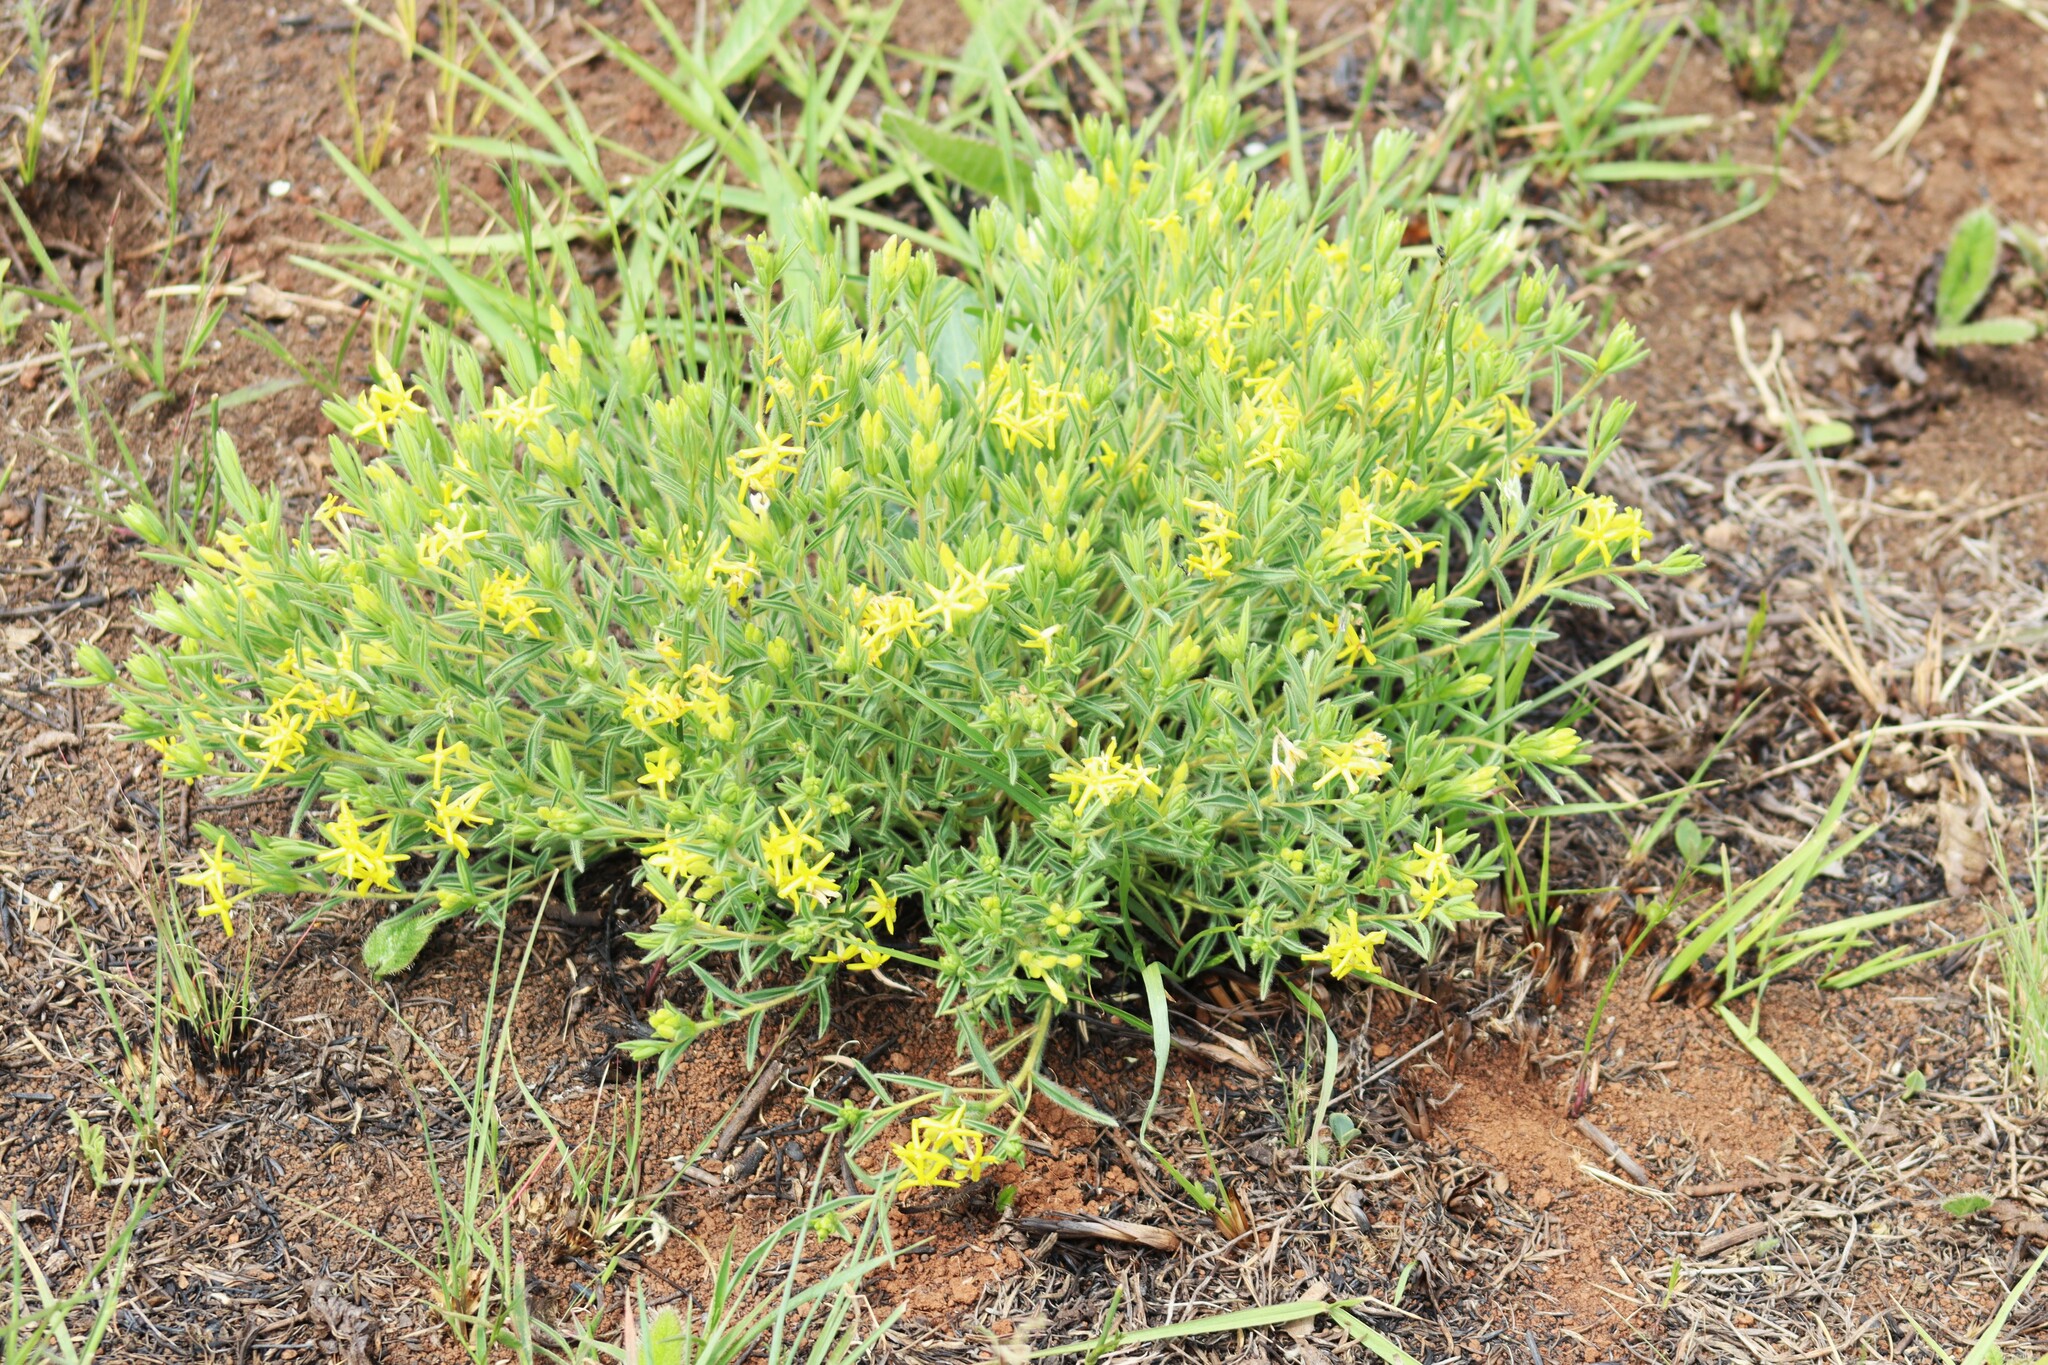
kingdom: Plantae
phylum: Tracheophyta
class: Magnoliopsida
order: Malvales
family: Thymelaeaceae
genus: Gnidia
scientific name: Gnidia caffra
